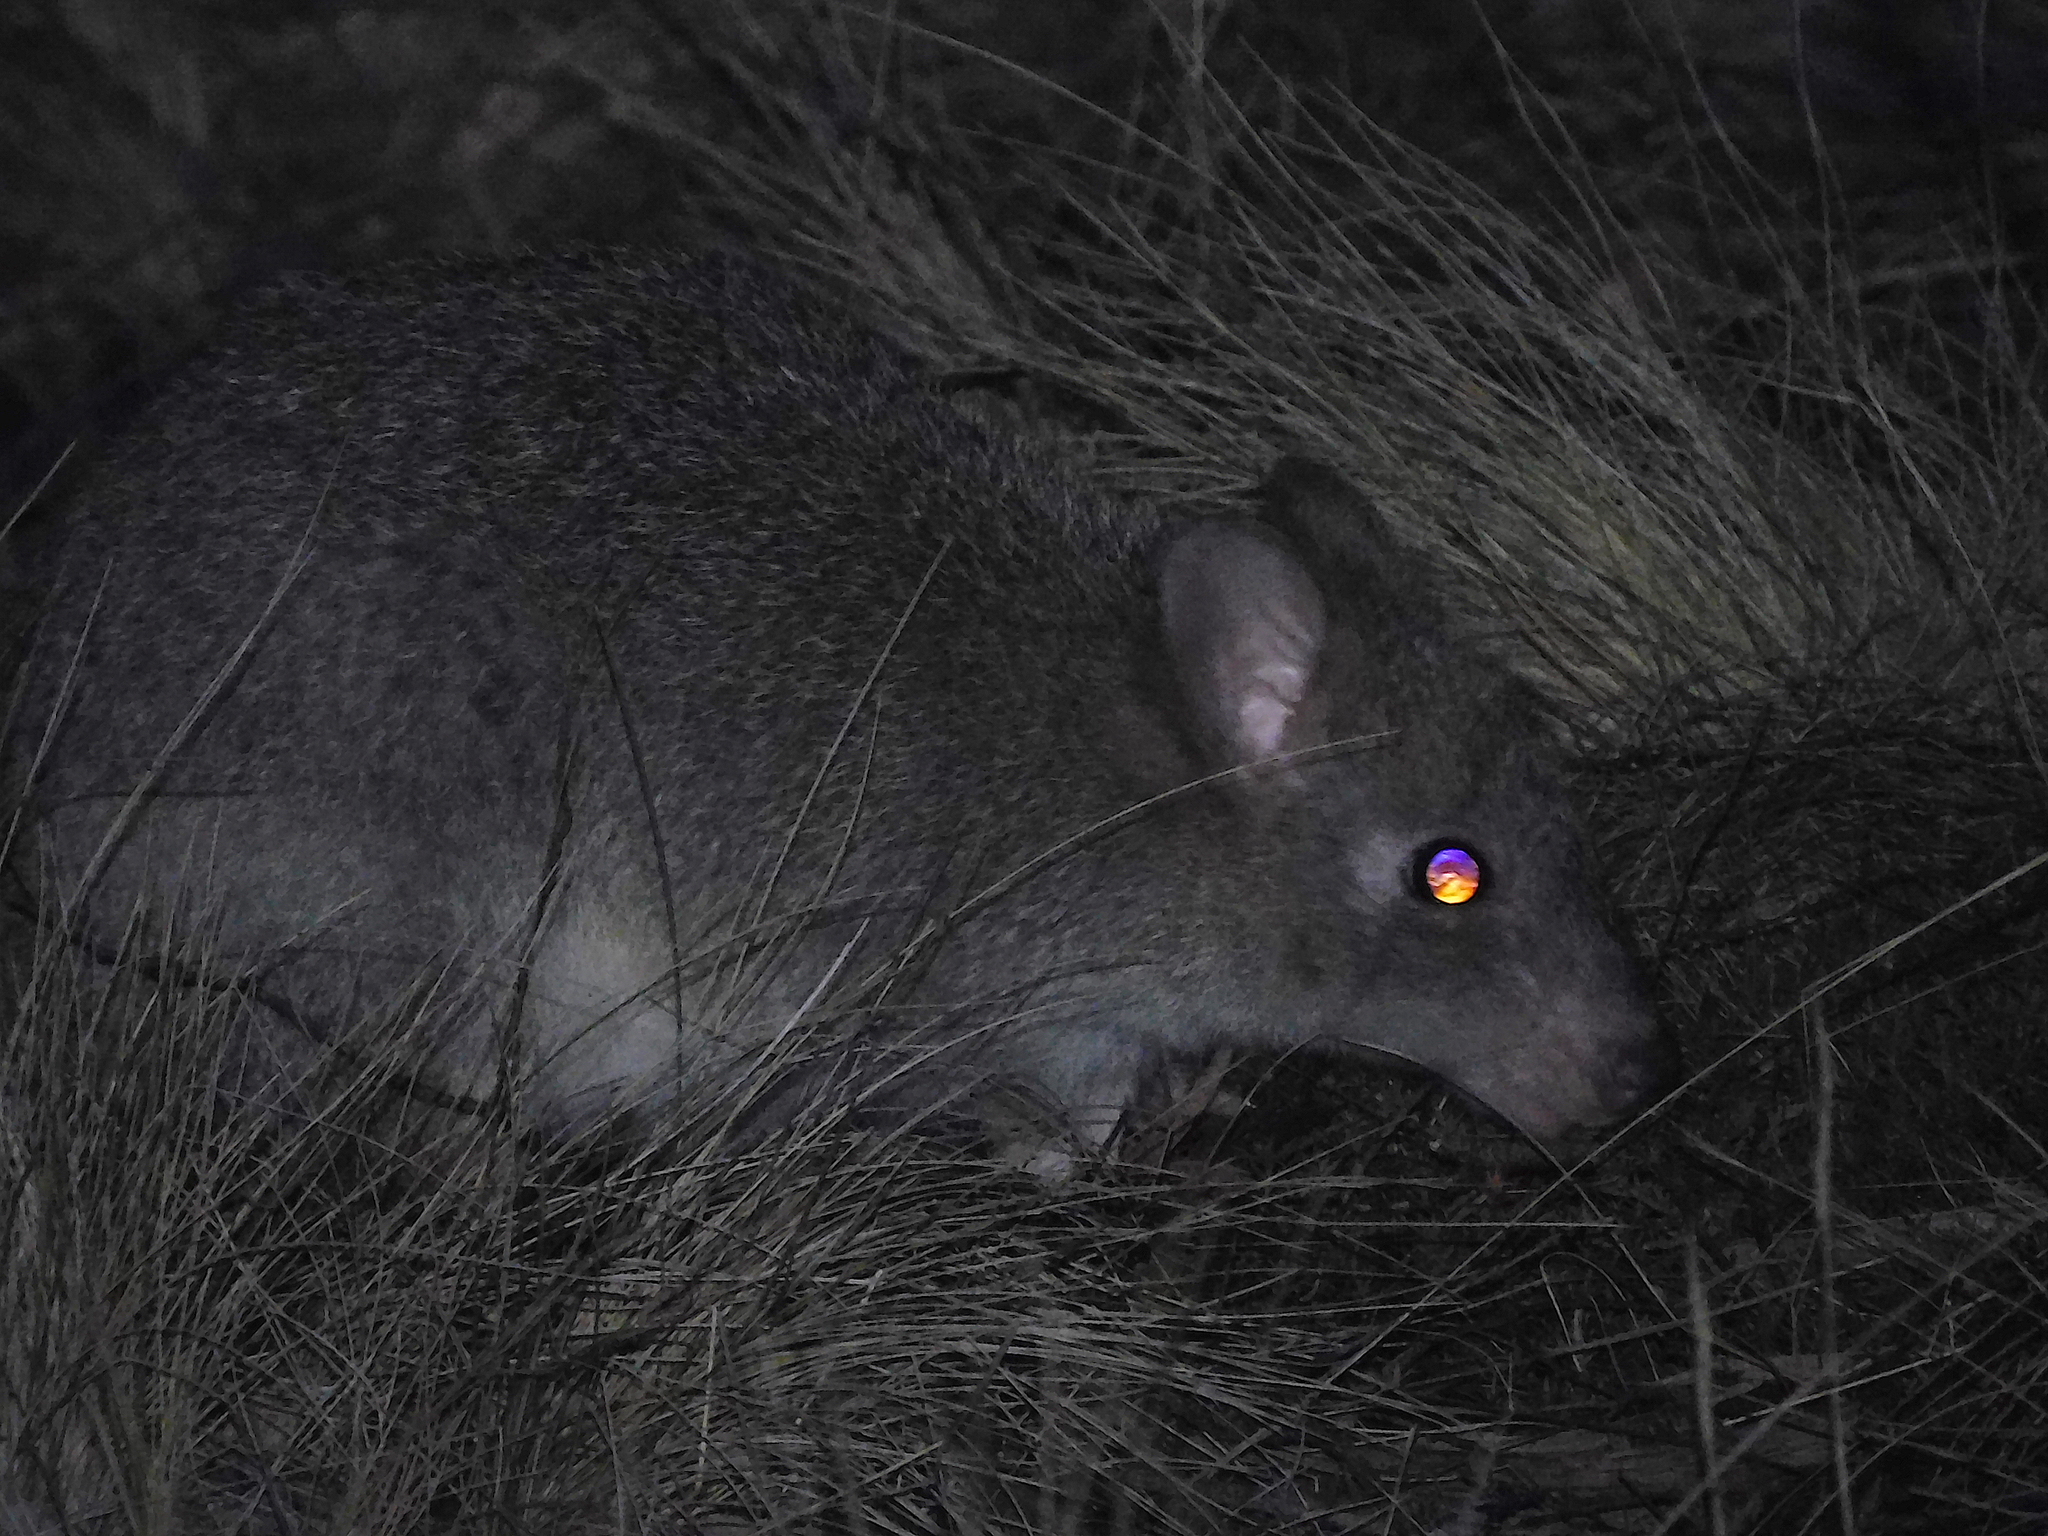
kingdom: Animalia
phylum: Chordata
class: Mammalia
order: Diprotodontia
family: Potoroidae
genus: Bettongia
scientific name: Bettongia gaimardi
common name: Eastern bettong
